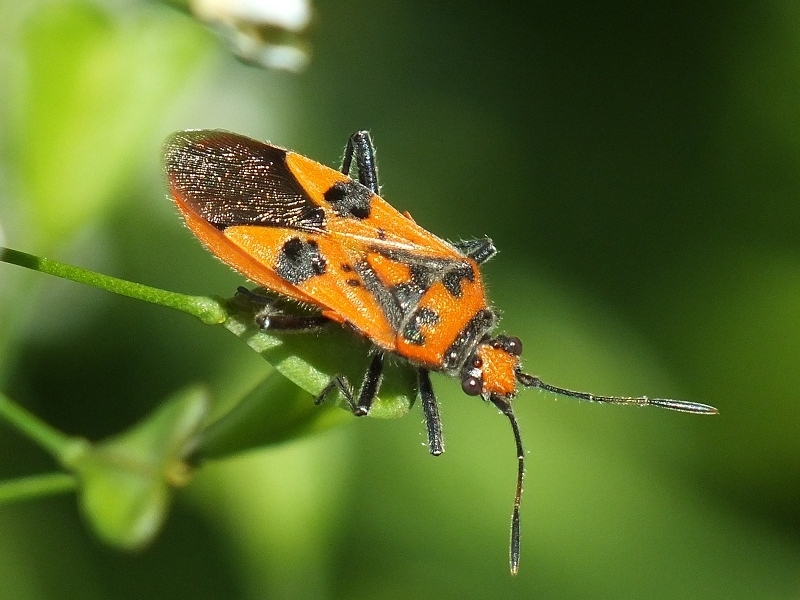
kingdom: Animalia
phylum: Arthropoda
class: Insecta
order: Hemiptera
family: Rhopalidae
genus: Corizus
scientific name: Corizus hyoscyami
